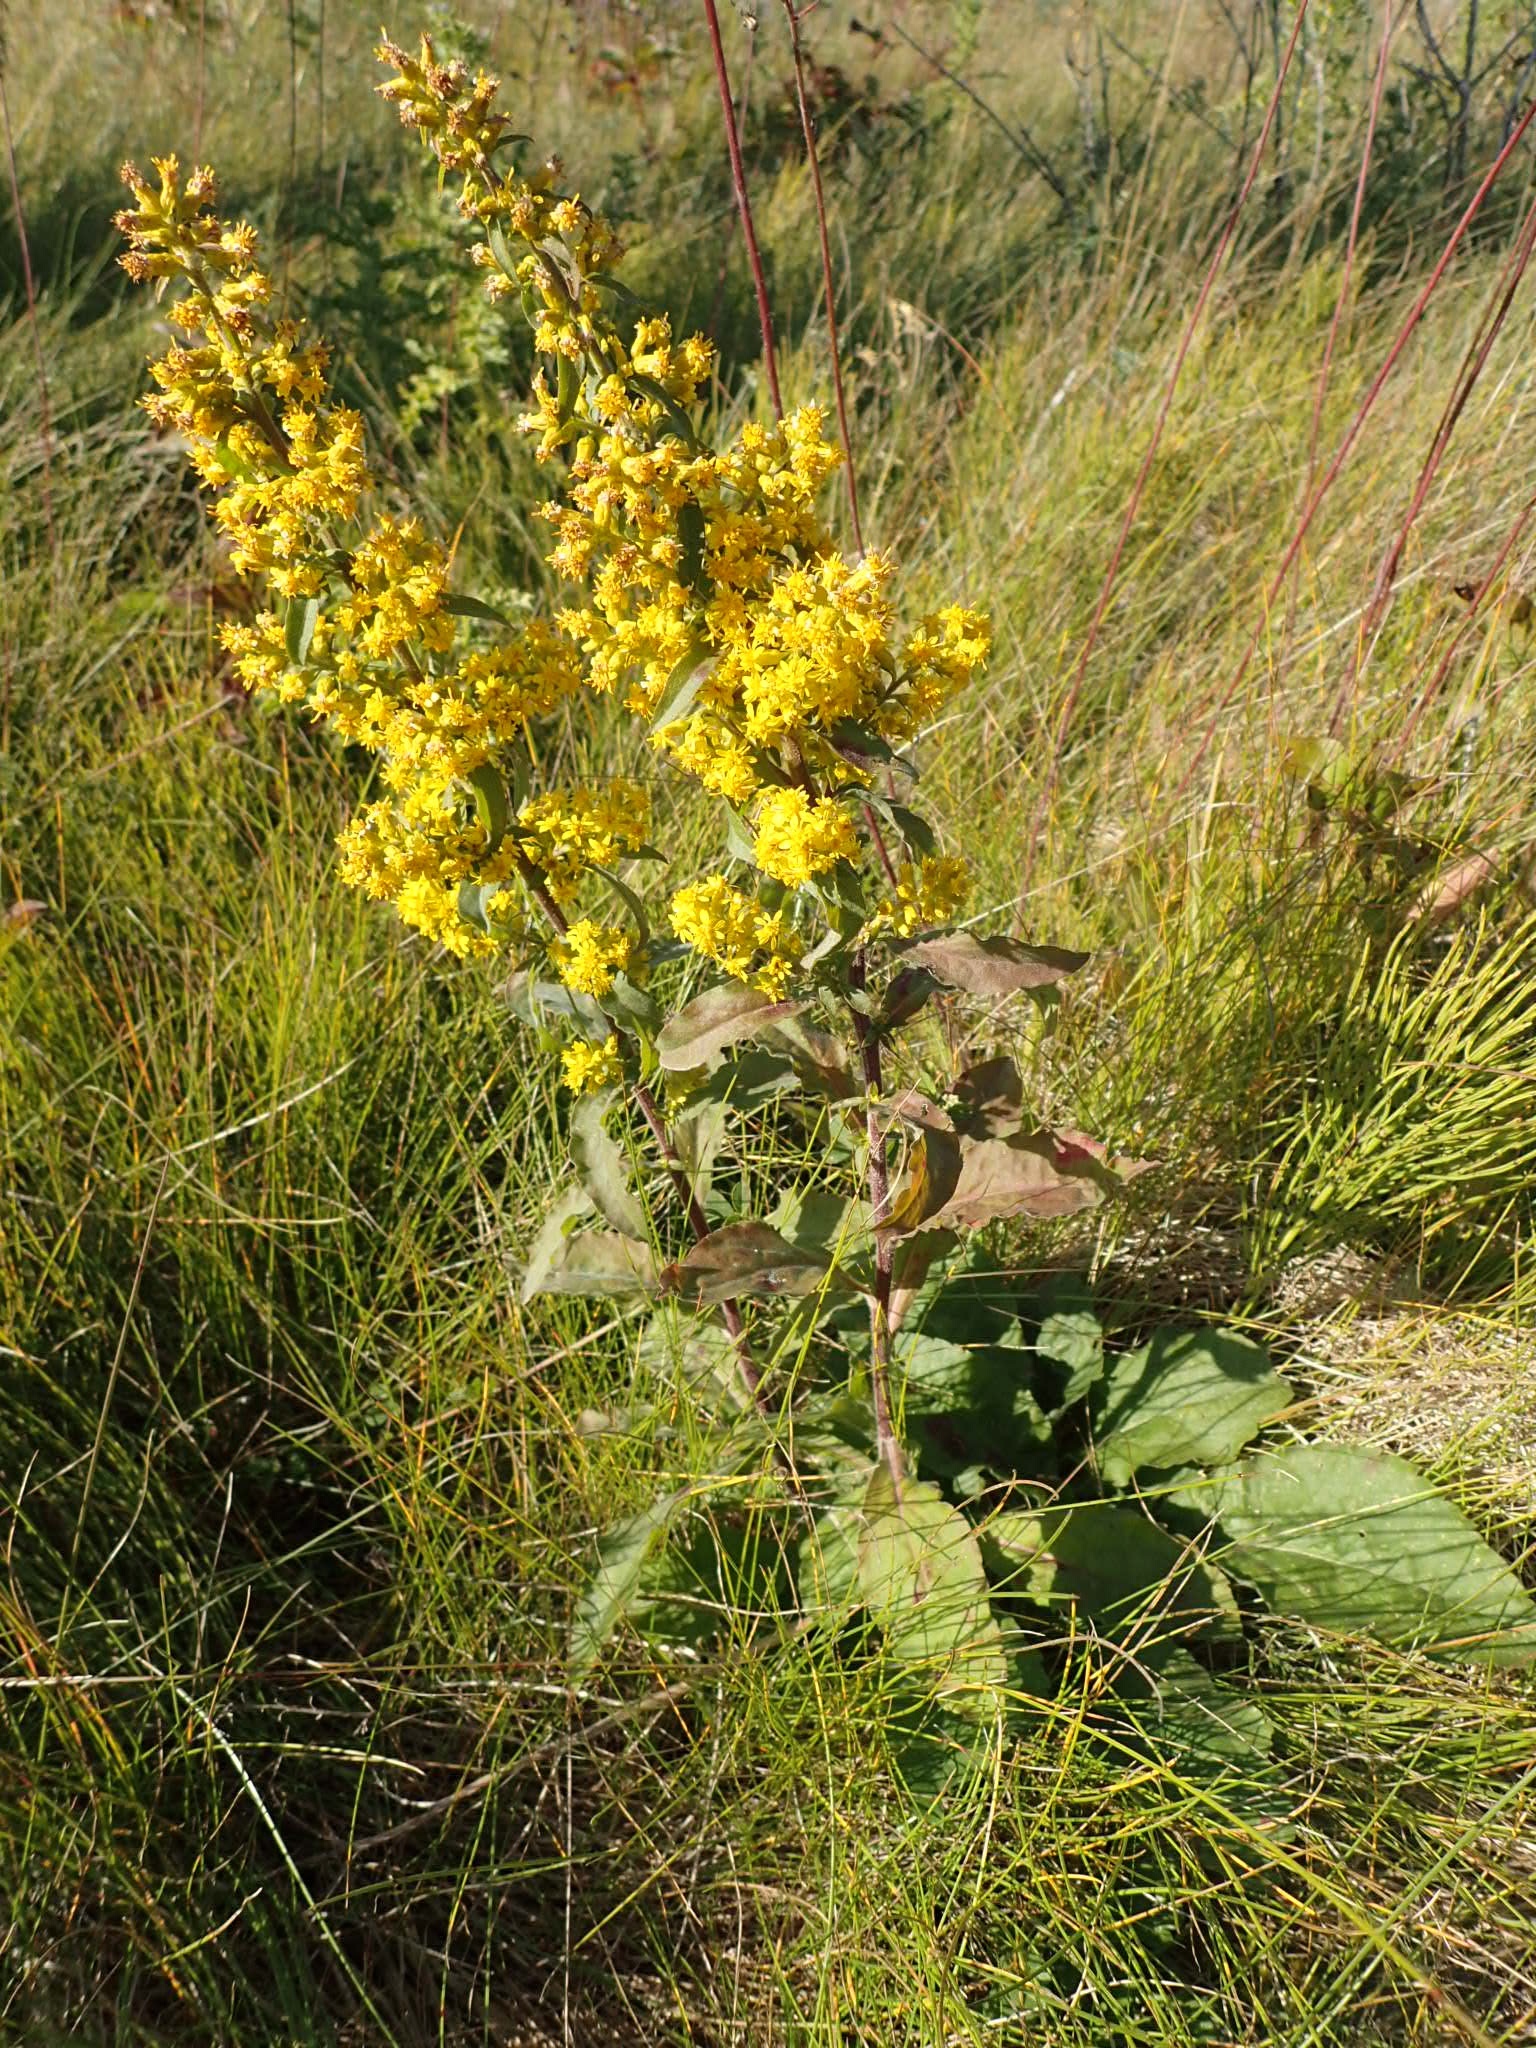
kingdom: Plantae
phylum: Tracheophyta
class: Magnoliopsida
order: Asterales
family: Asteraceae
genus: Solidago
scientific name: Solidago hispida
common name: Hairy goldenrod
